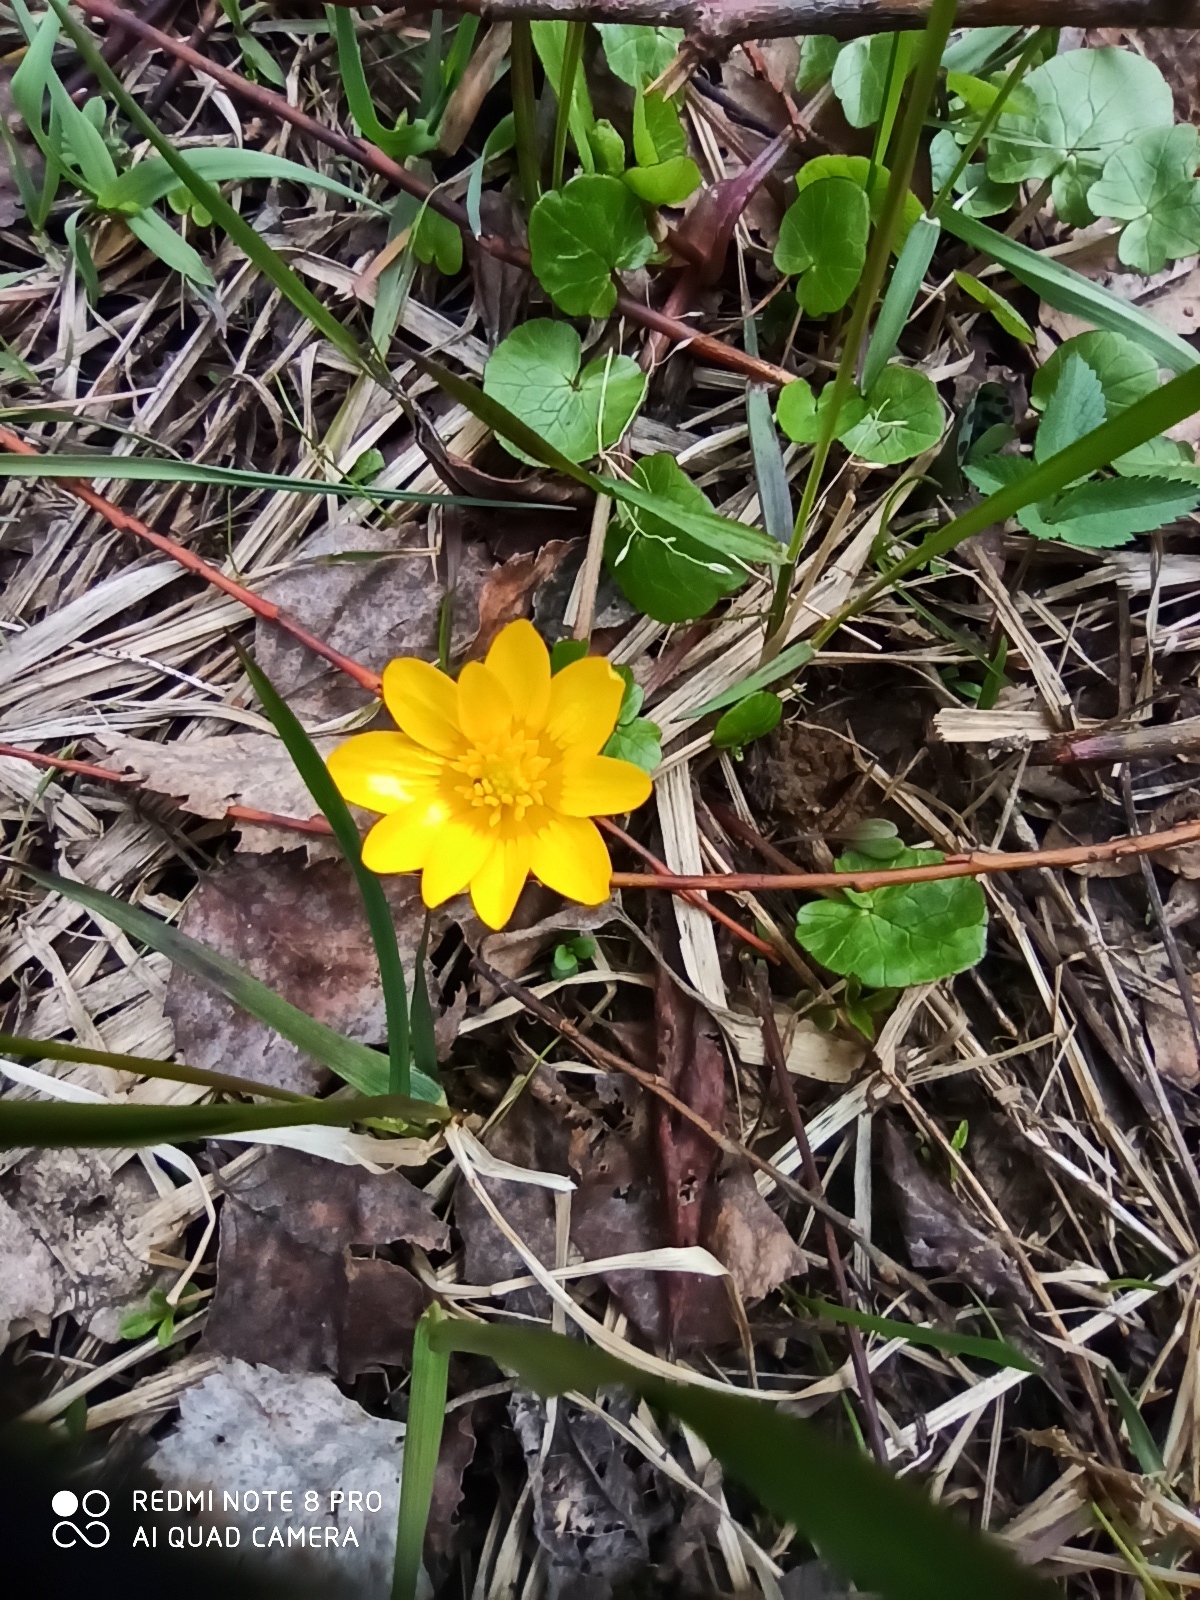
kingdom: Plantae
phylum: Tracheophyta
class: Magnoliopsida
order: Ranunculales
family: Ranunculaceae
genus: Ficaria
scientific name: Ficaria verna
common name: Lesser celandine
